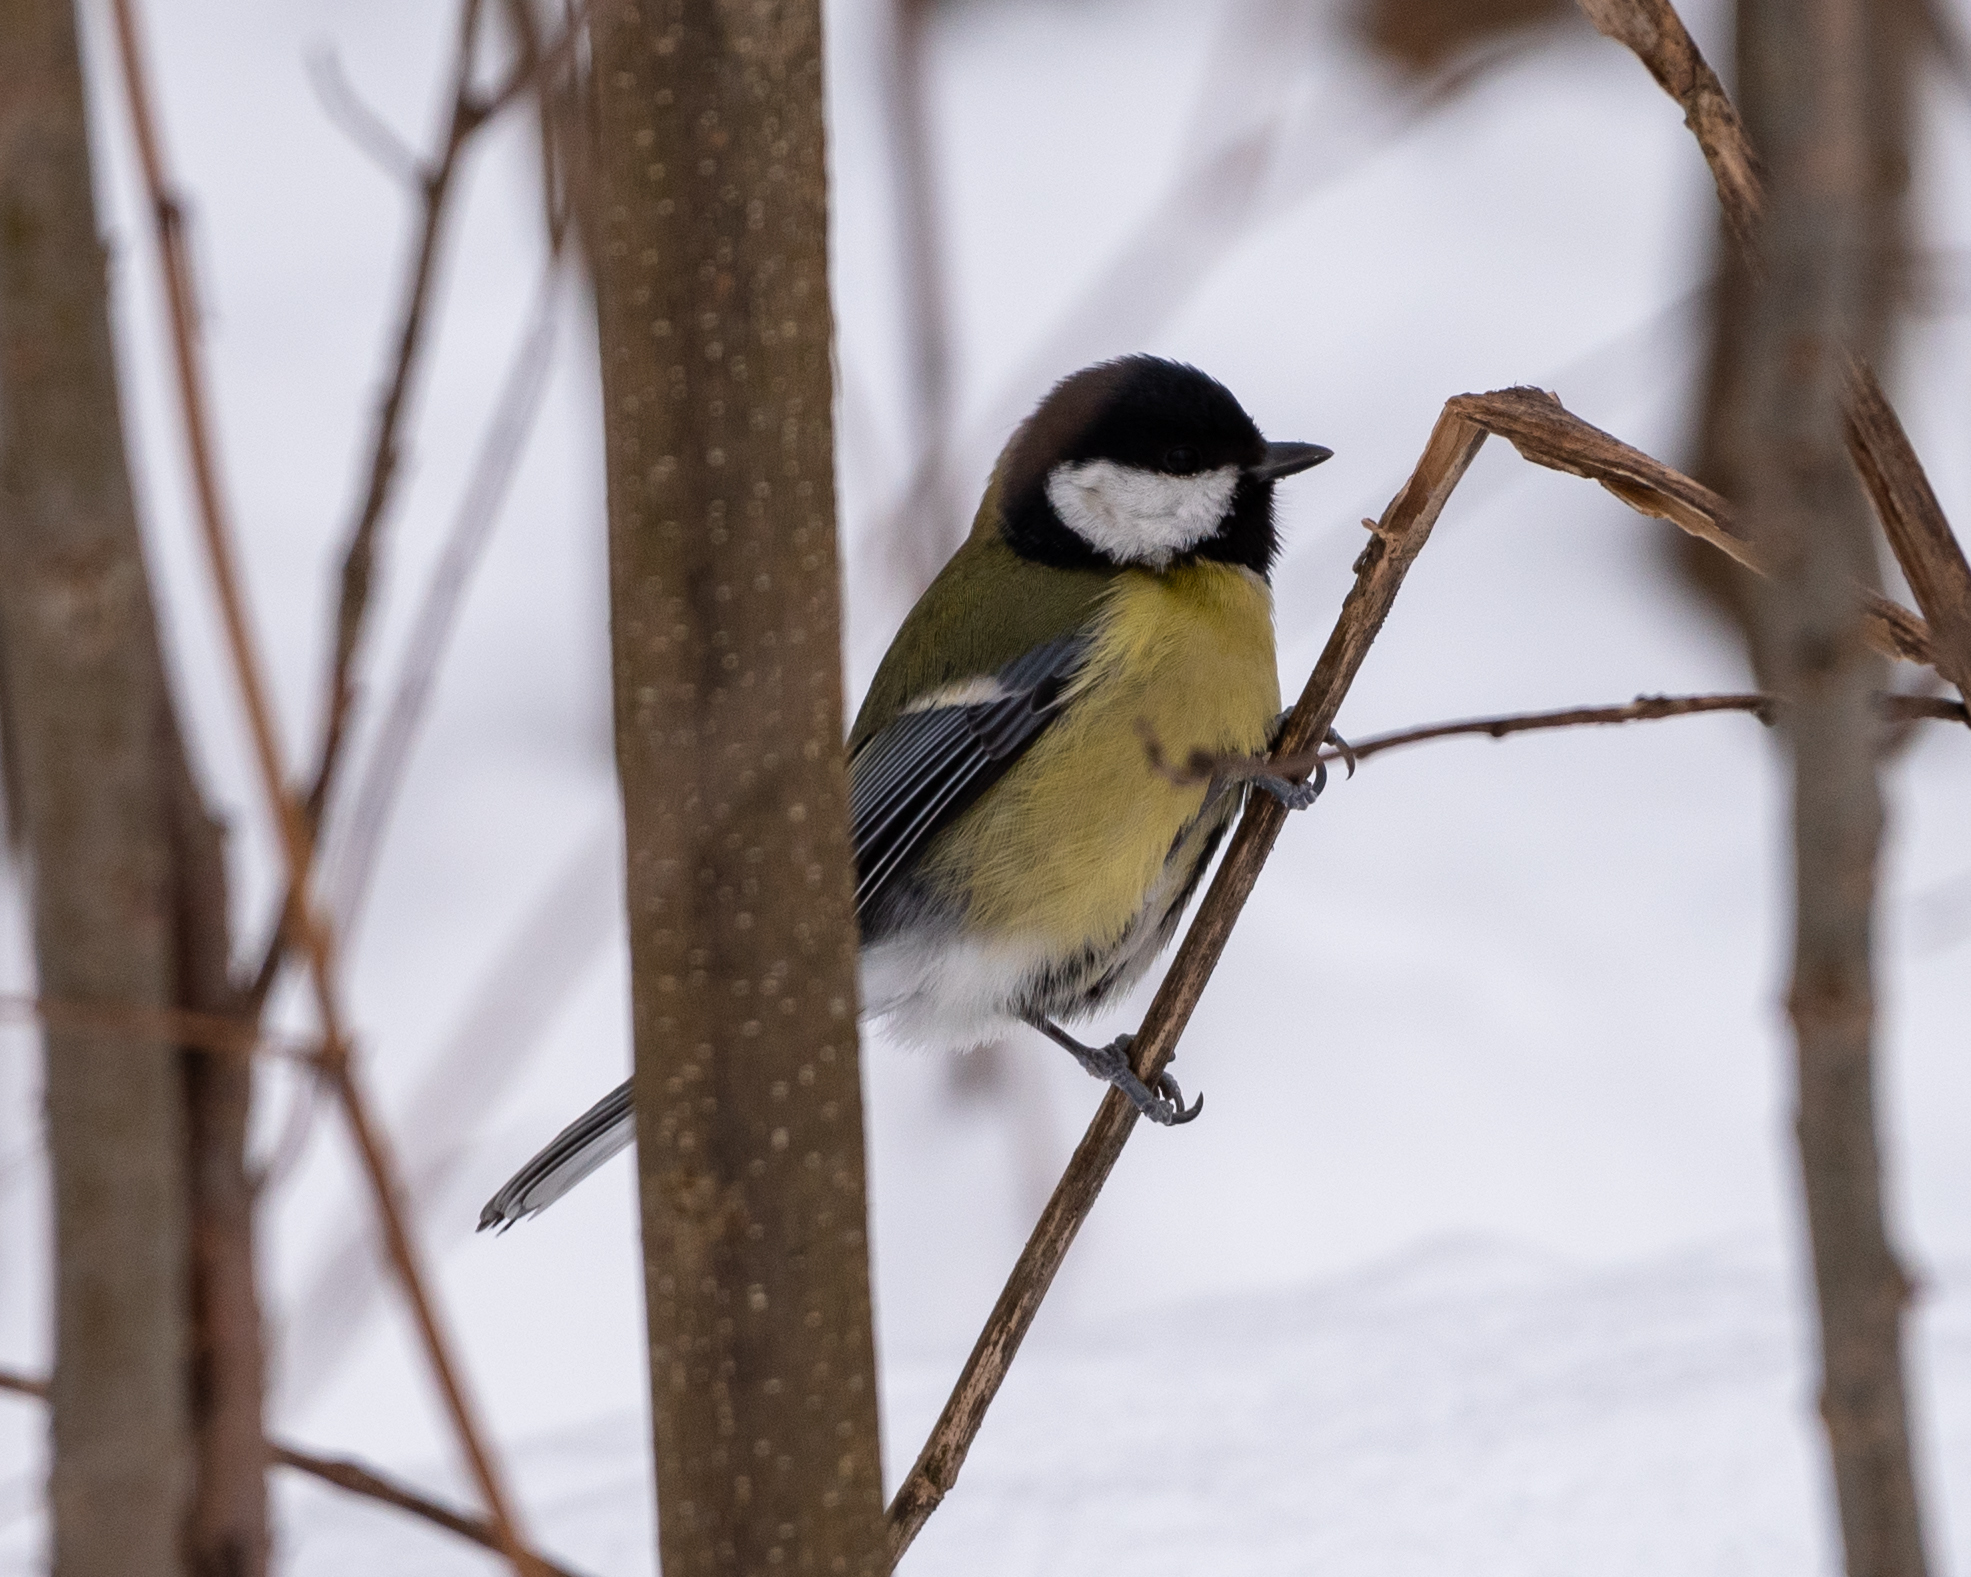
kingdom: Animalia
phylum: Chordata
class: Aves
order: Passeriformes
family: Paridae
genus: Parus
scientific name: Parus major
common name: Great tit
